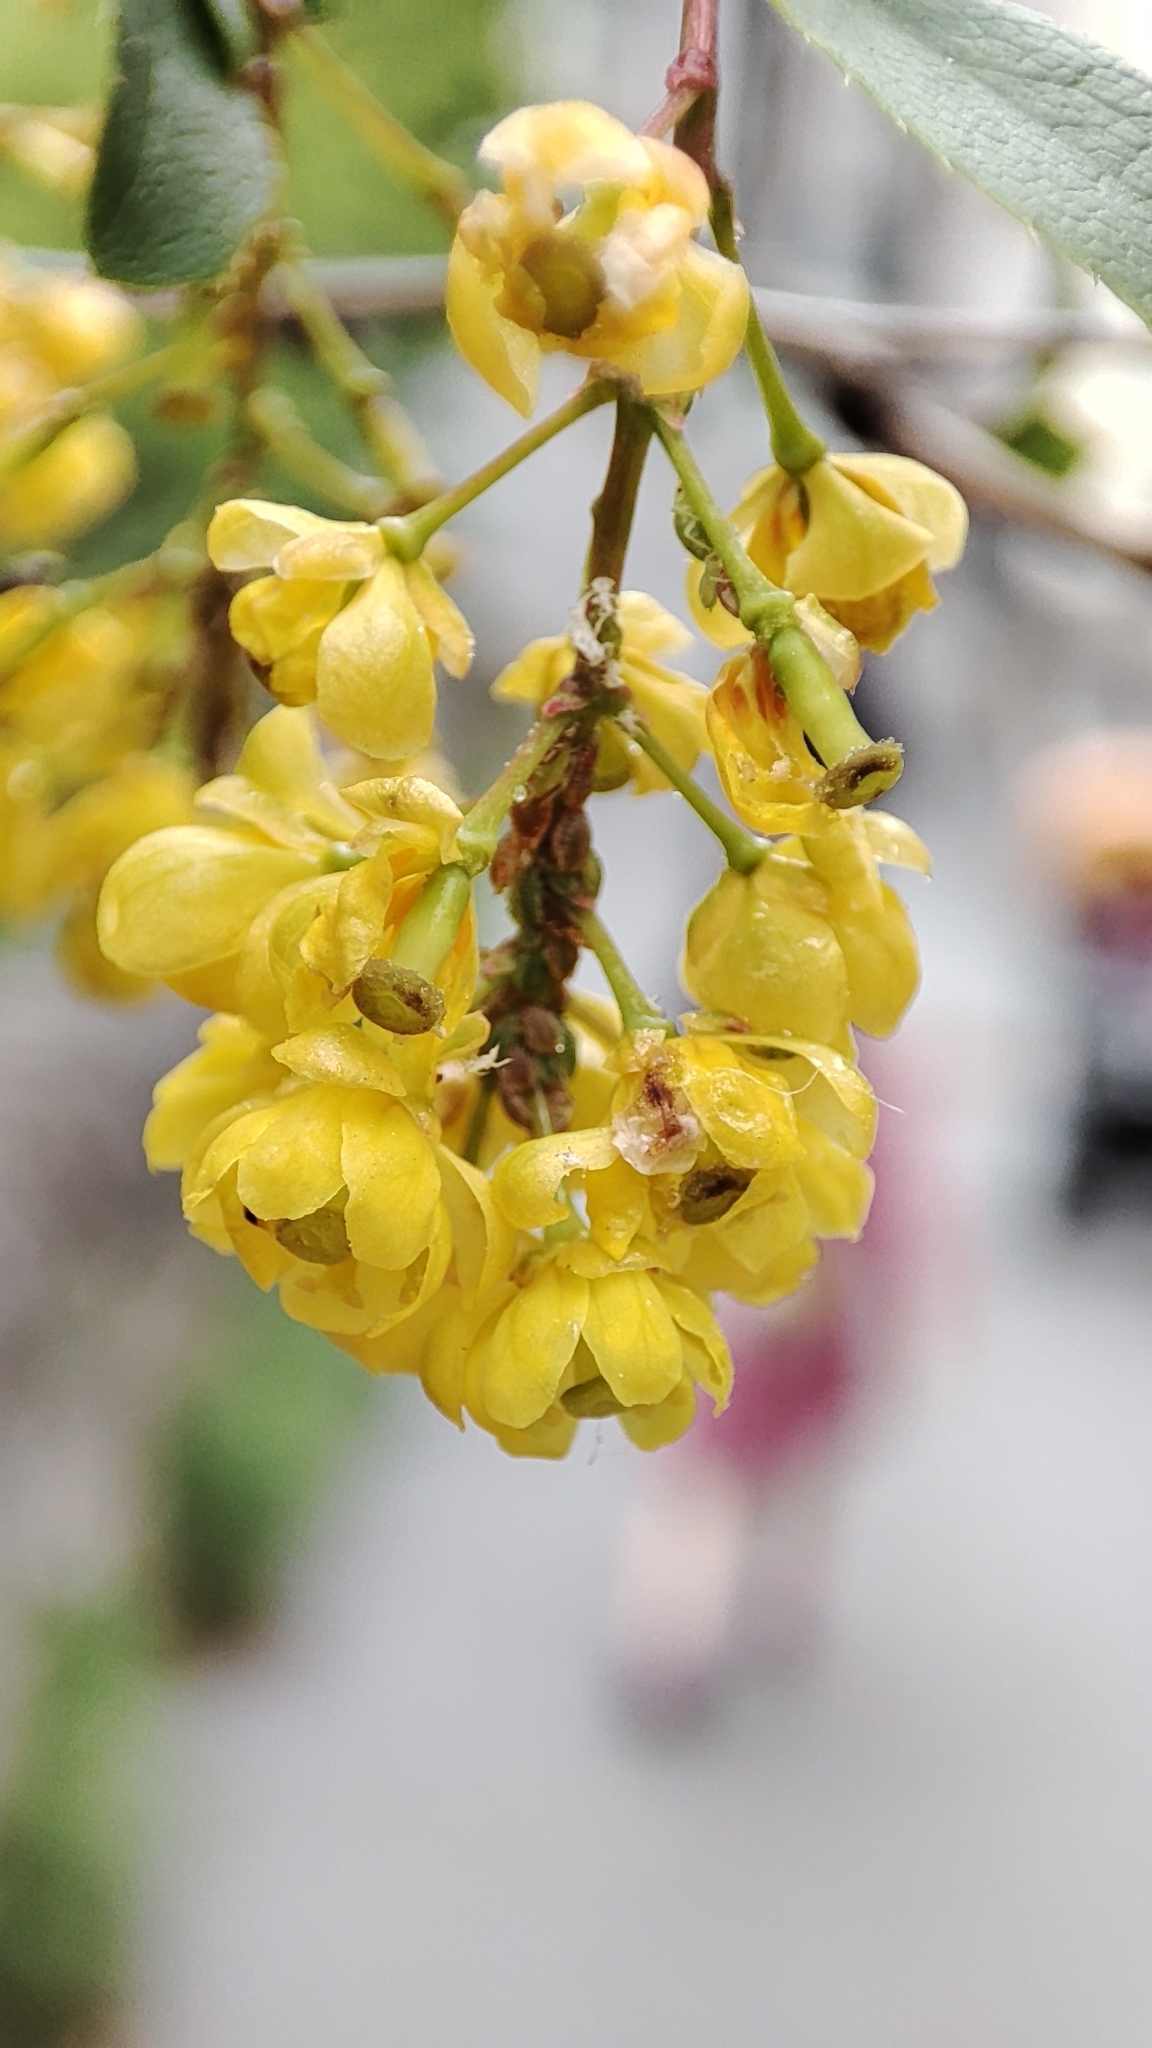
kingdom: Plantae
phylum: Tracheophyta
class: Magnoliopsida
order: Ranunculales
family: Berberidaceae
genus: Berberis
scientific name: Berberis vulgaris
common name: Barberry
